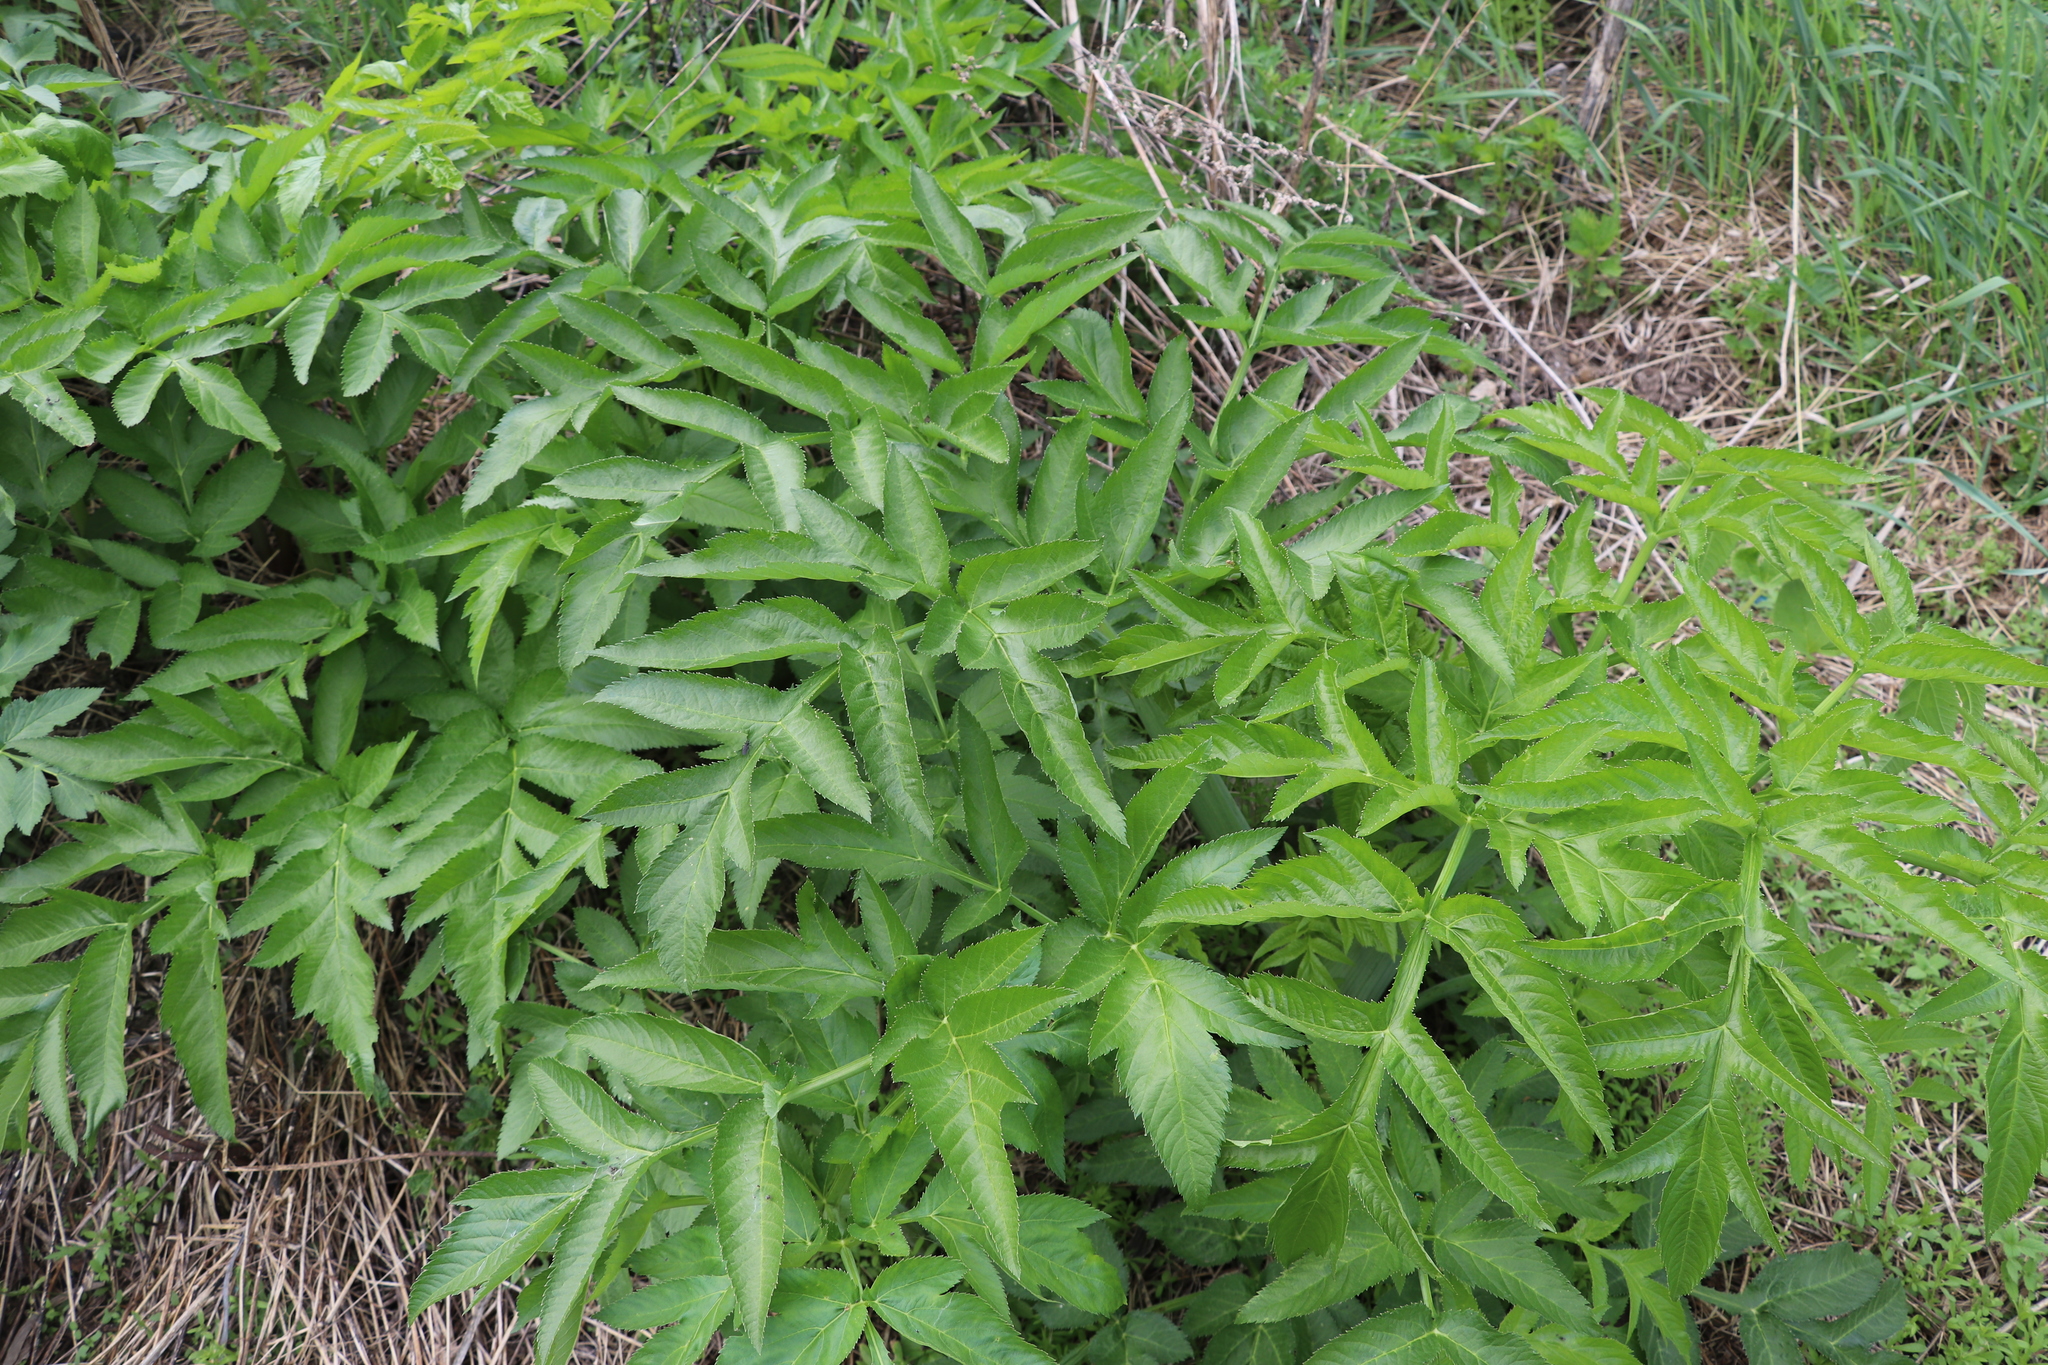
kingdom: Plantae
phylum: Tracheophyta
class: Magnoliopsida
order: Apiales
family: Apiaceae
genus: Angelica
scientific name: Angelica decurrens
